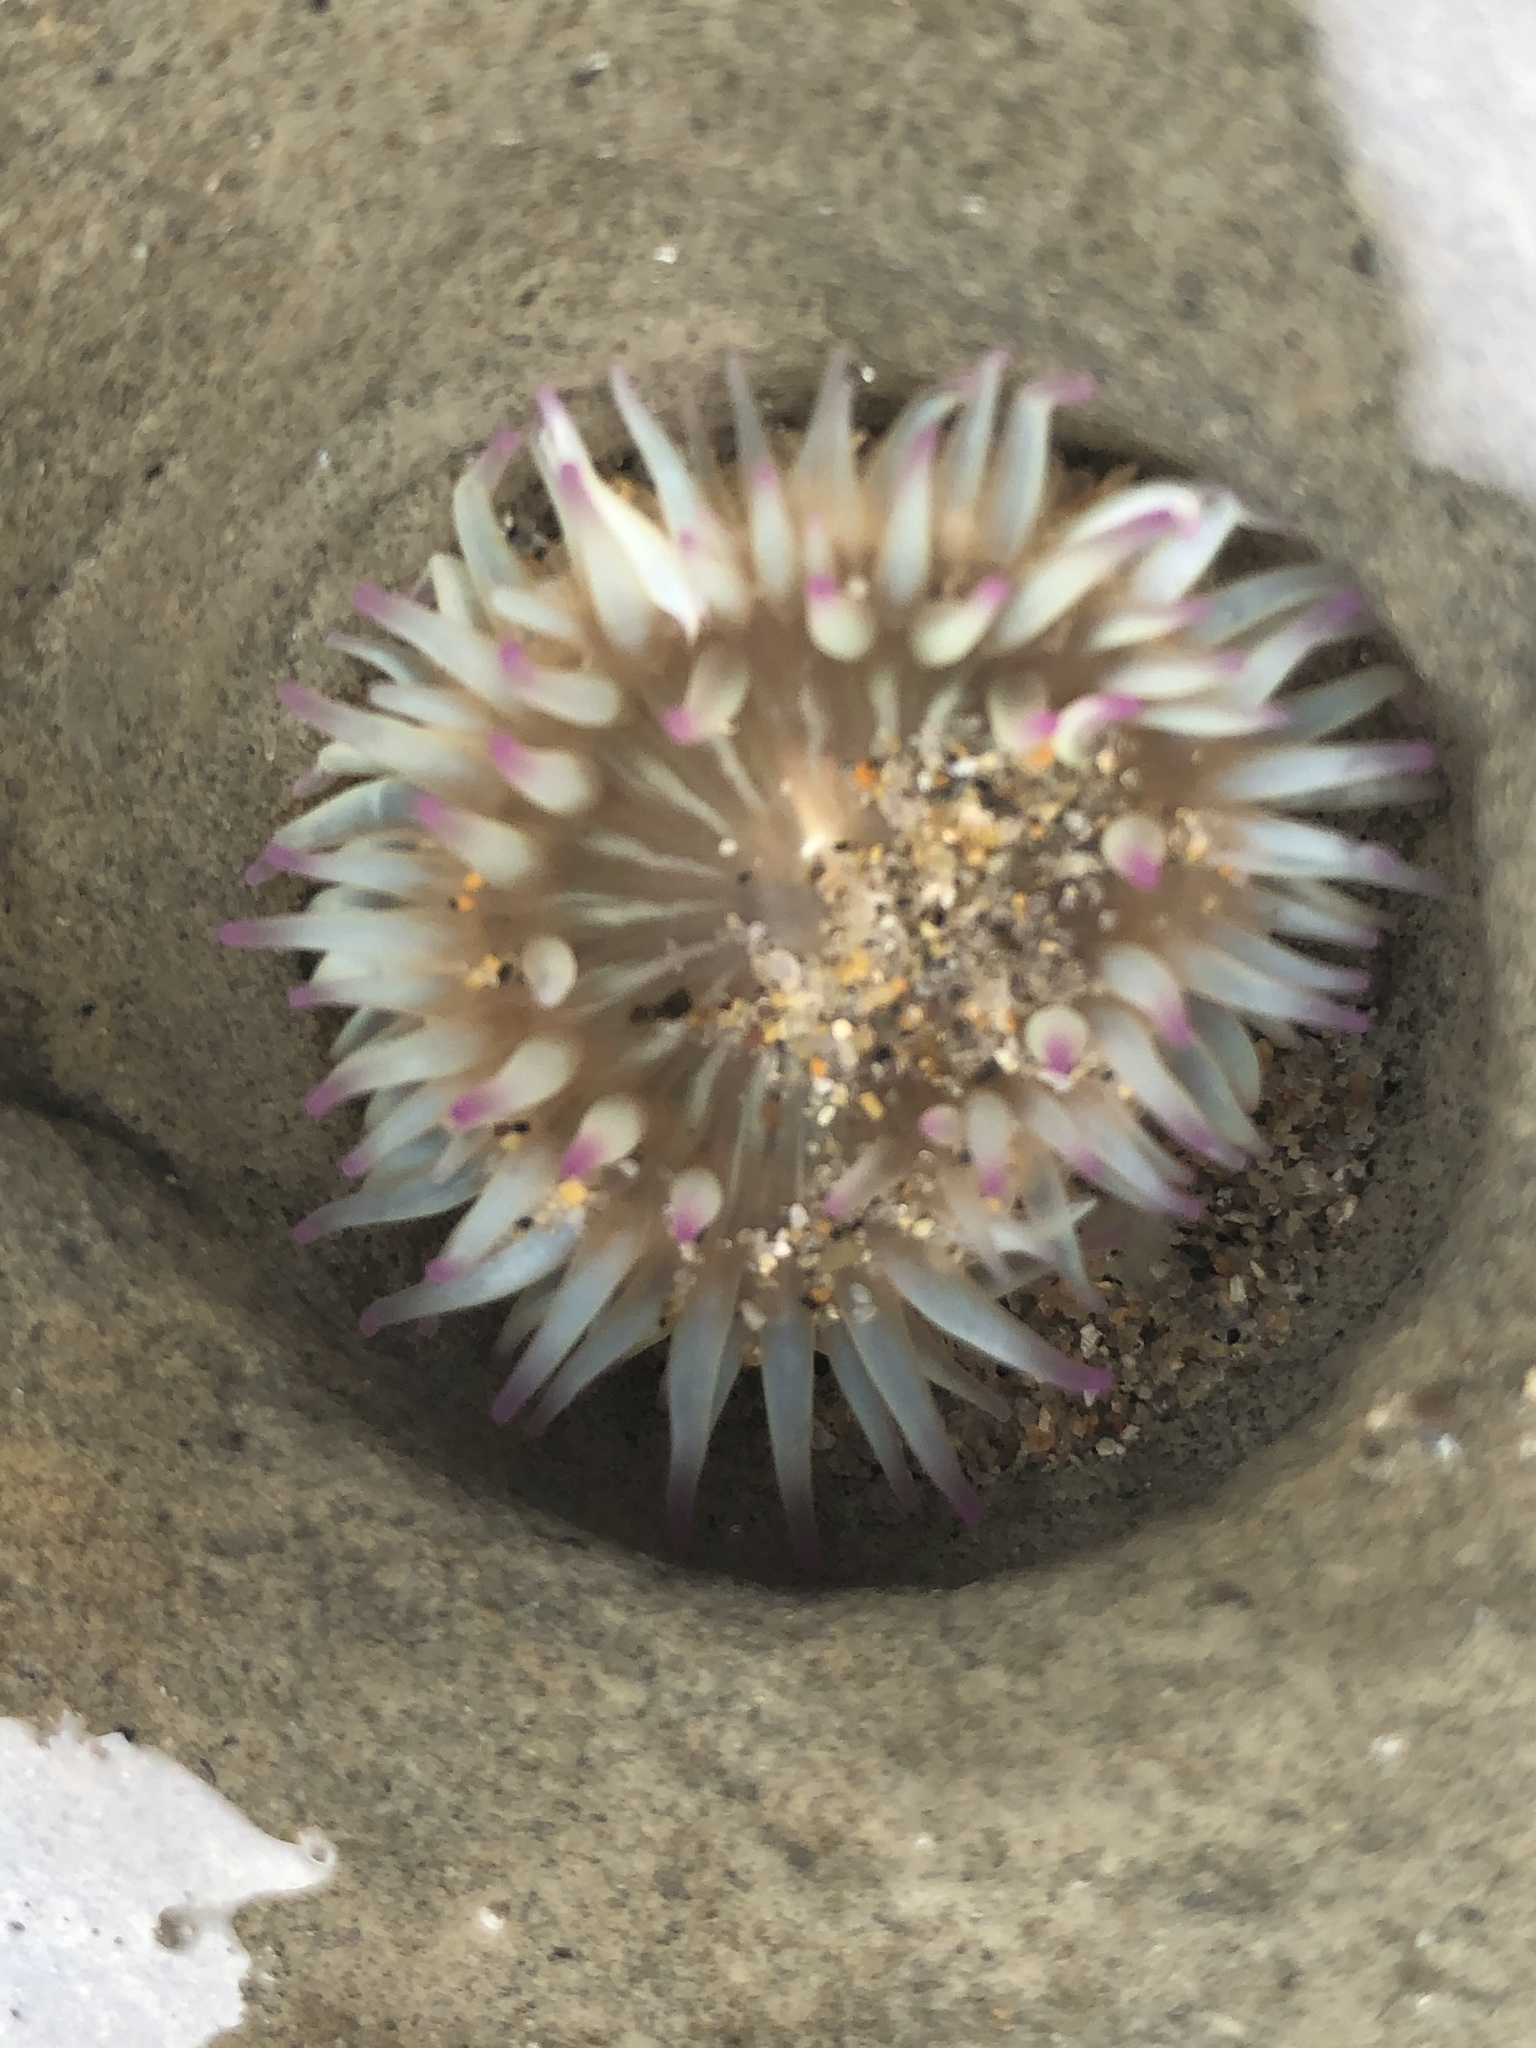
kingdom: Animalia
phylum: Cnidaria
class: Anthozoa
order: Actiniaria
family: Actiniidae
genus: Anthopleura
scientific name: Anthopleura elegantissima
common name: Clonal anemone
